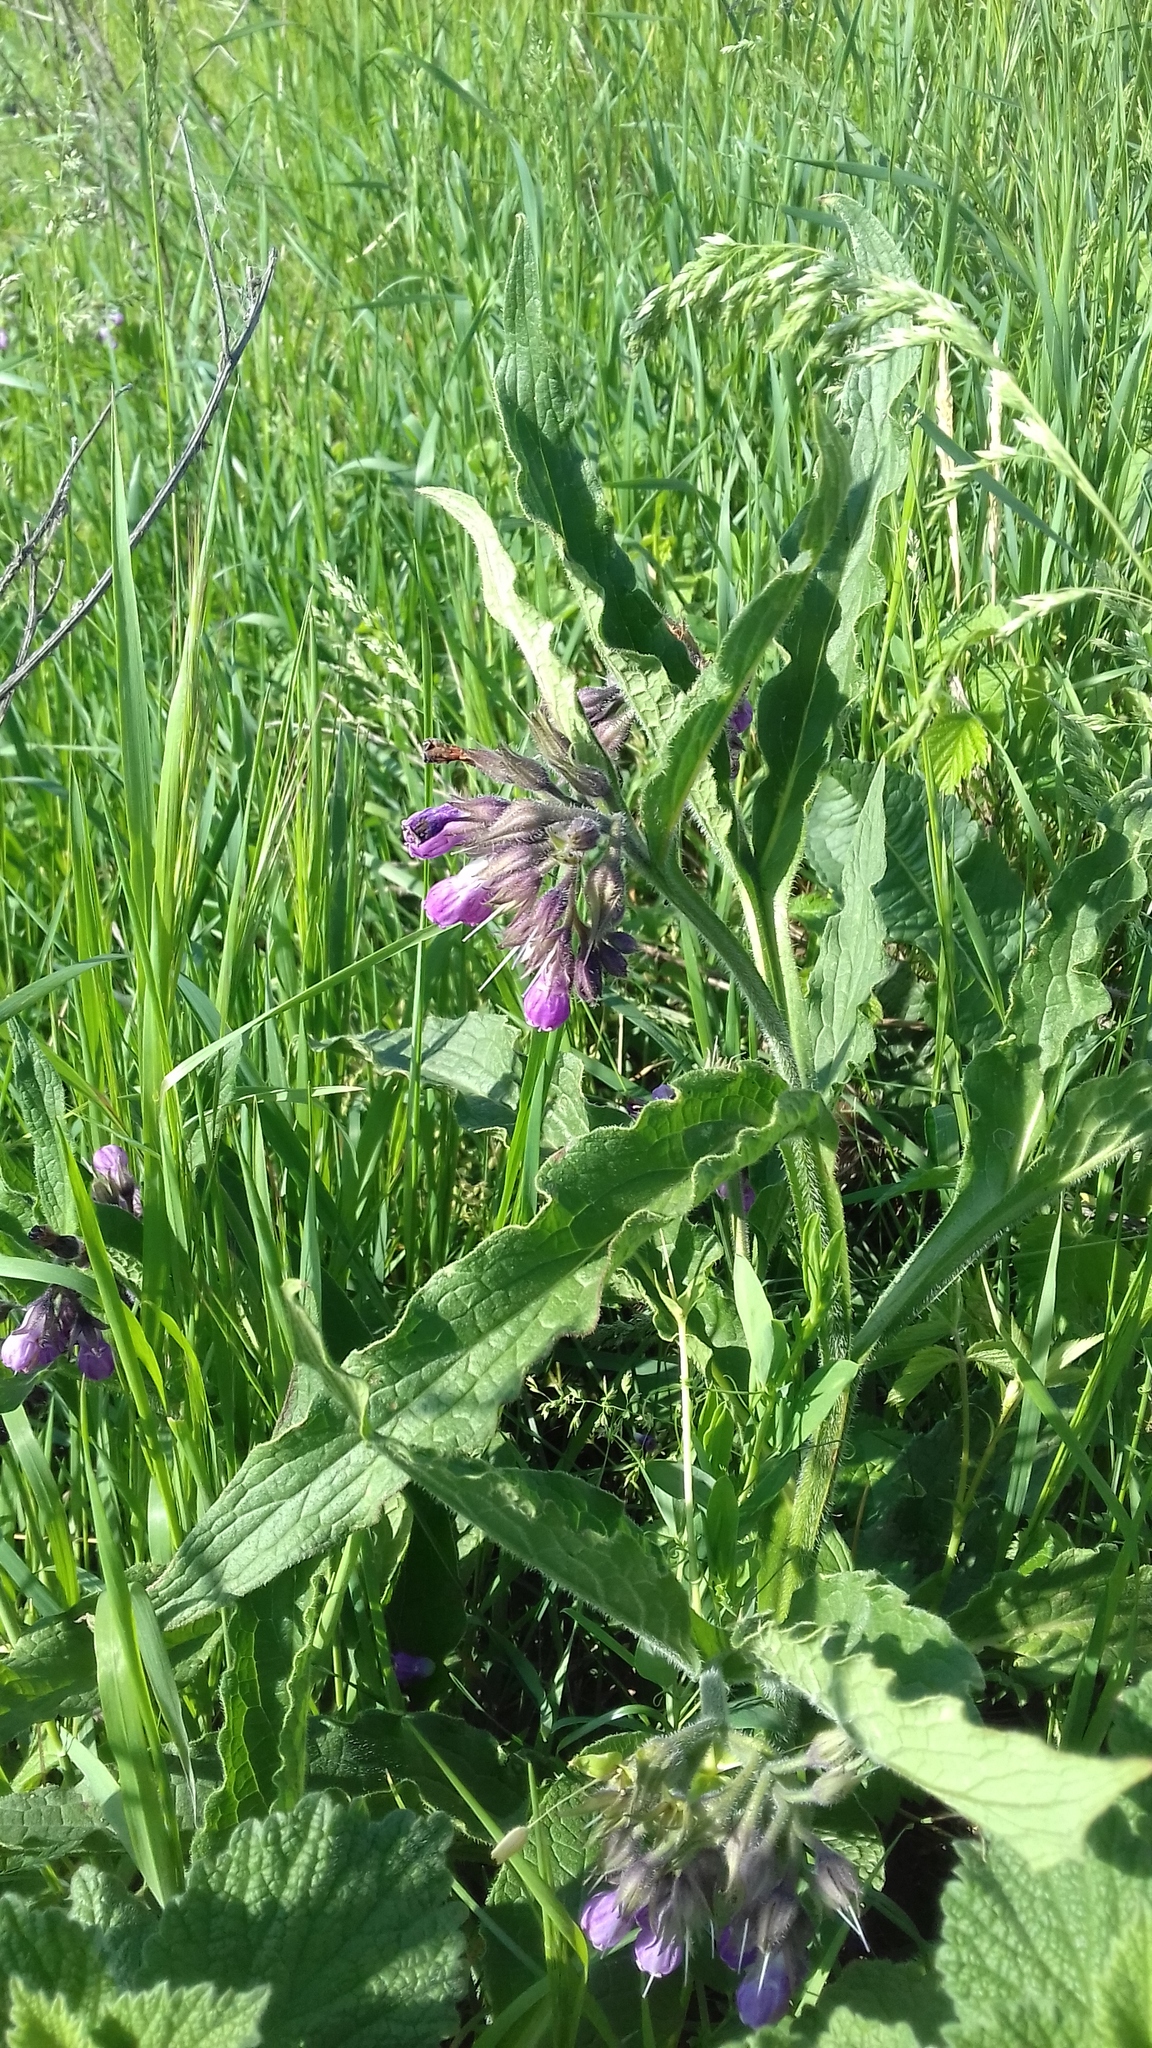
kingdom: Plantae
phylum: Tracheophyta
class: Magnoliopsida
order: Boraginales
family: Boraginaceae
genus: Symphytum
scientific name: Symphytum officinale
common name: Common comfrey
